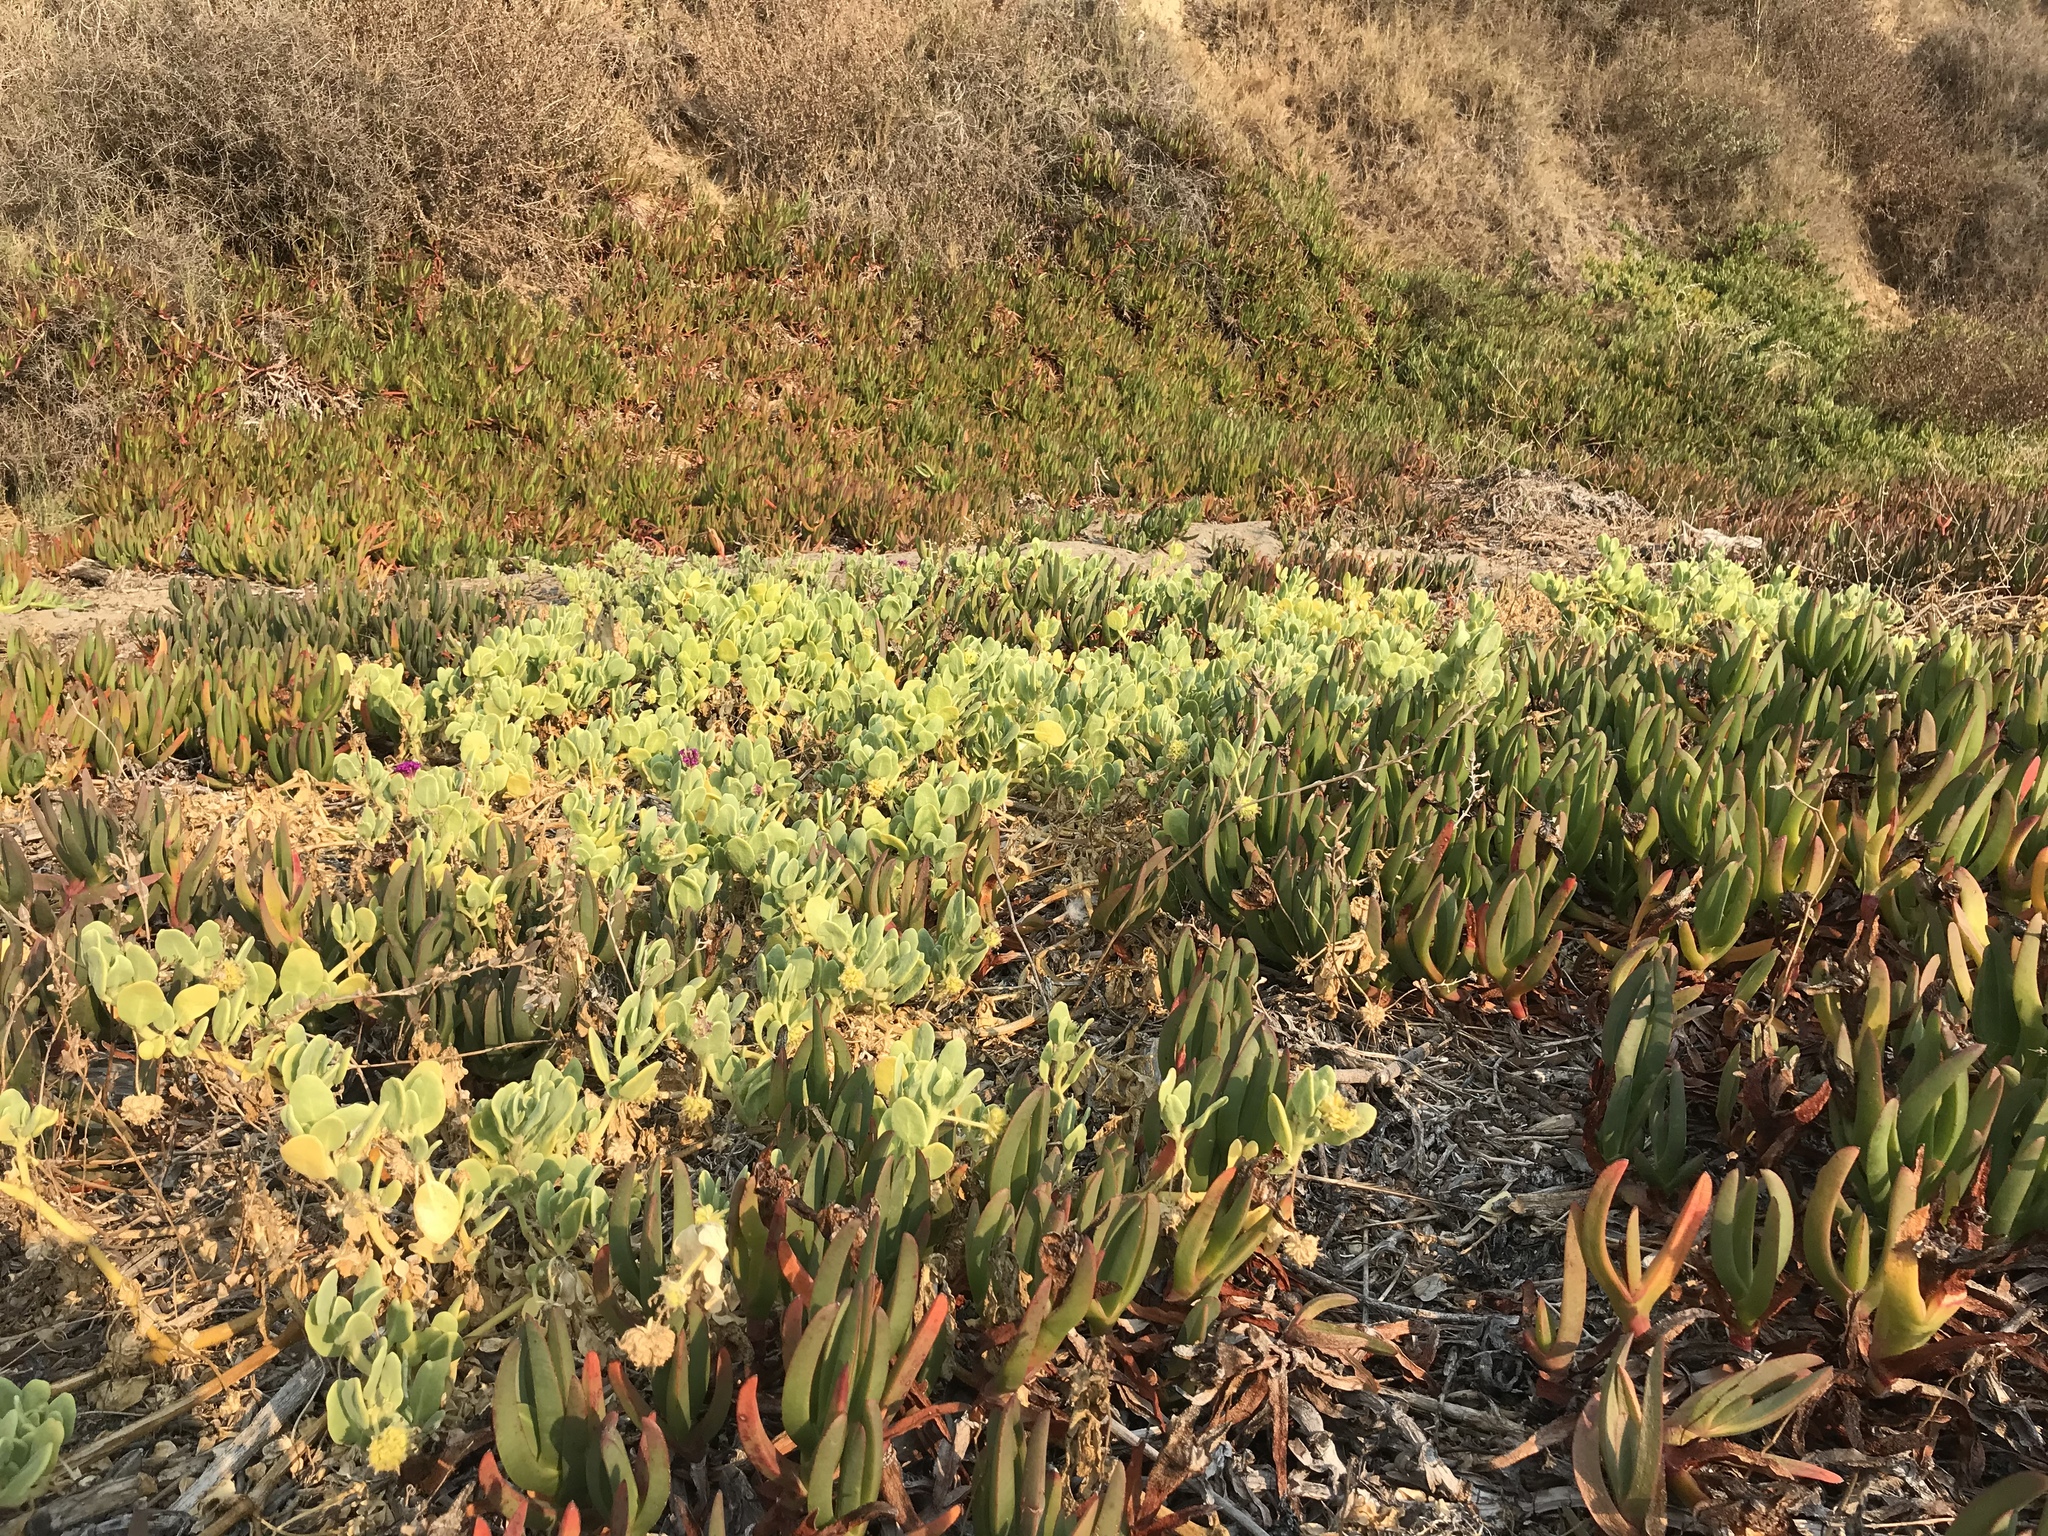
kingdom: Plantae
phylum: Tracheophyta
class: Magnoliopsida
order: Caryophyllales
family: Nyctaginaceae
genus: Abronia
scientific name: Abronia maritima
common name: Red sand-verbena
